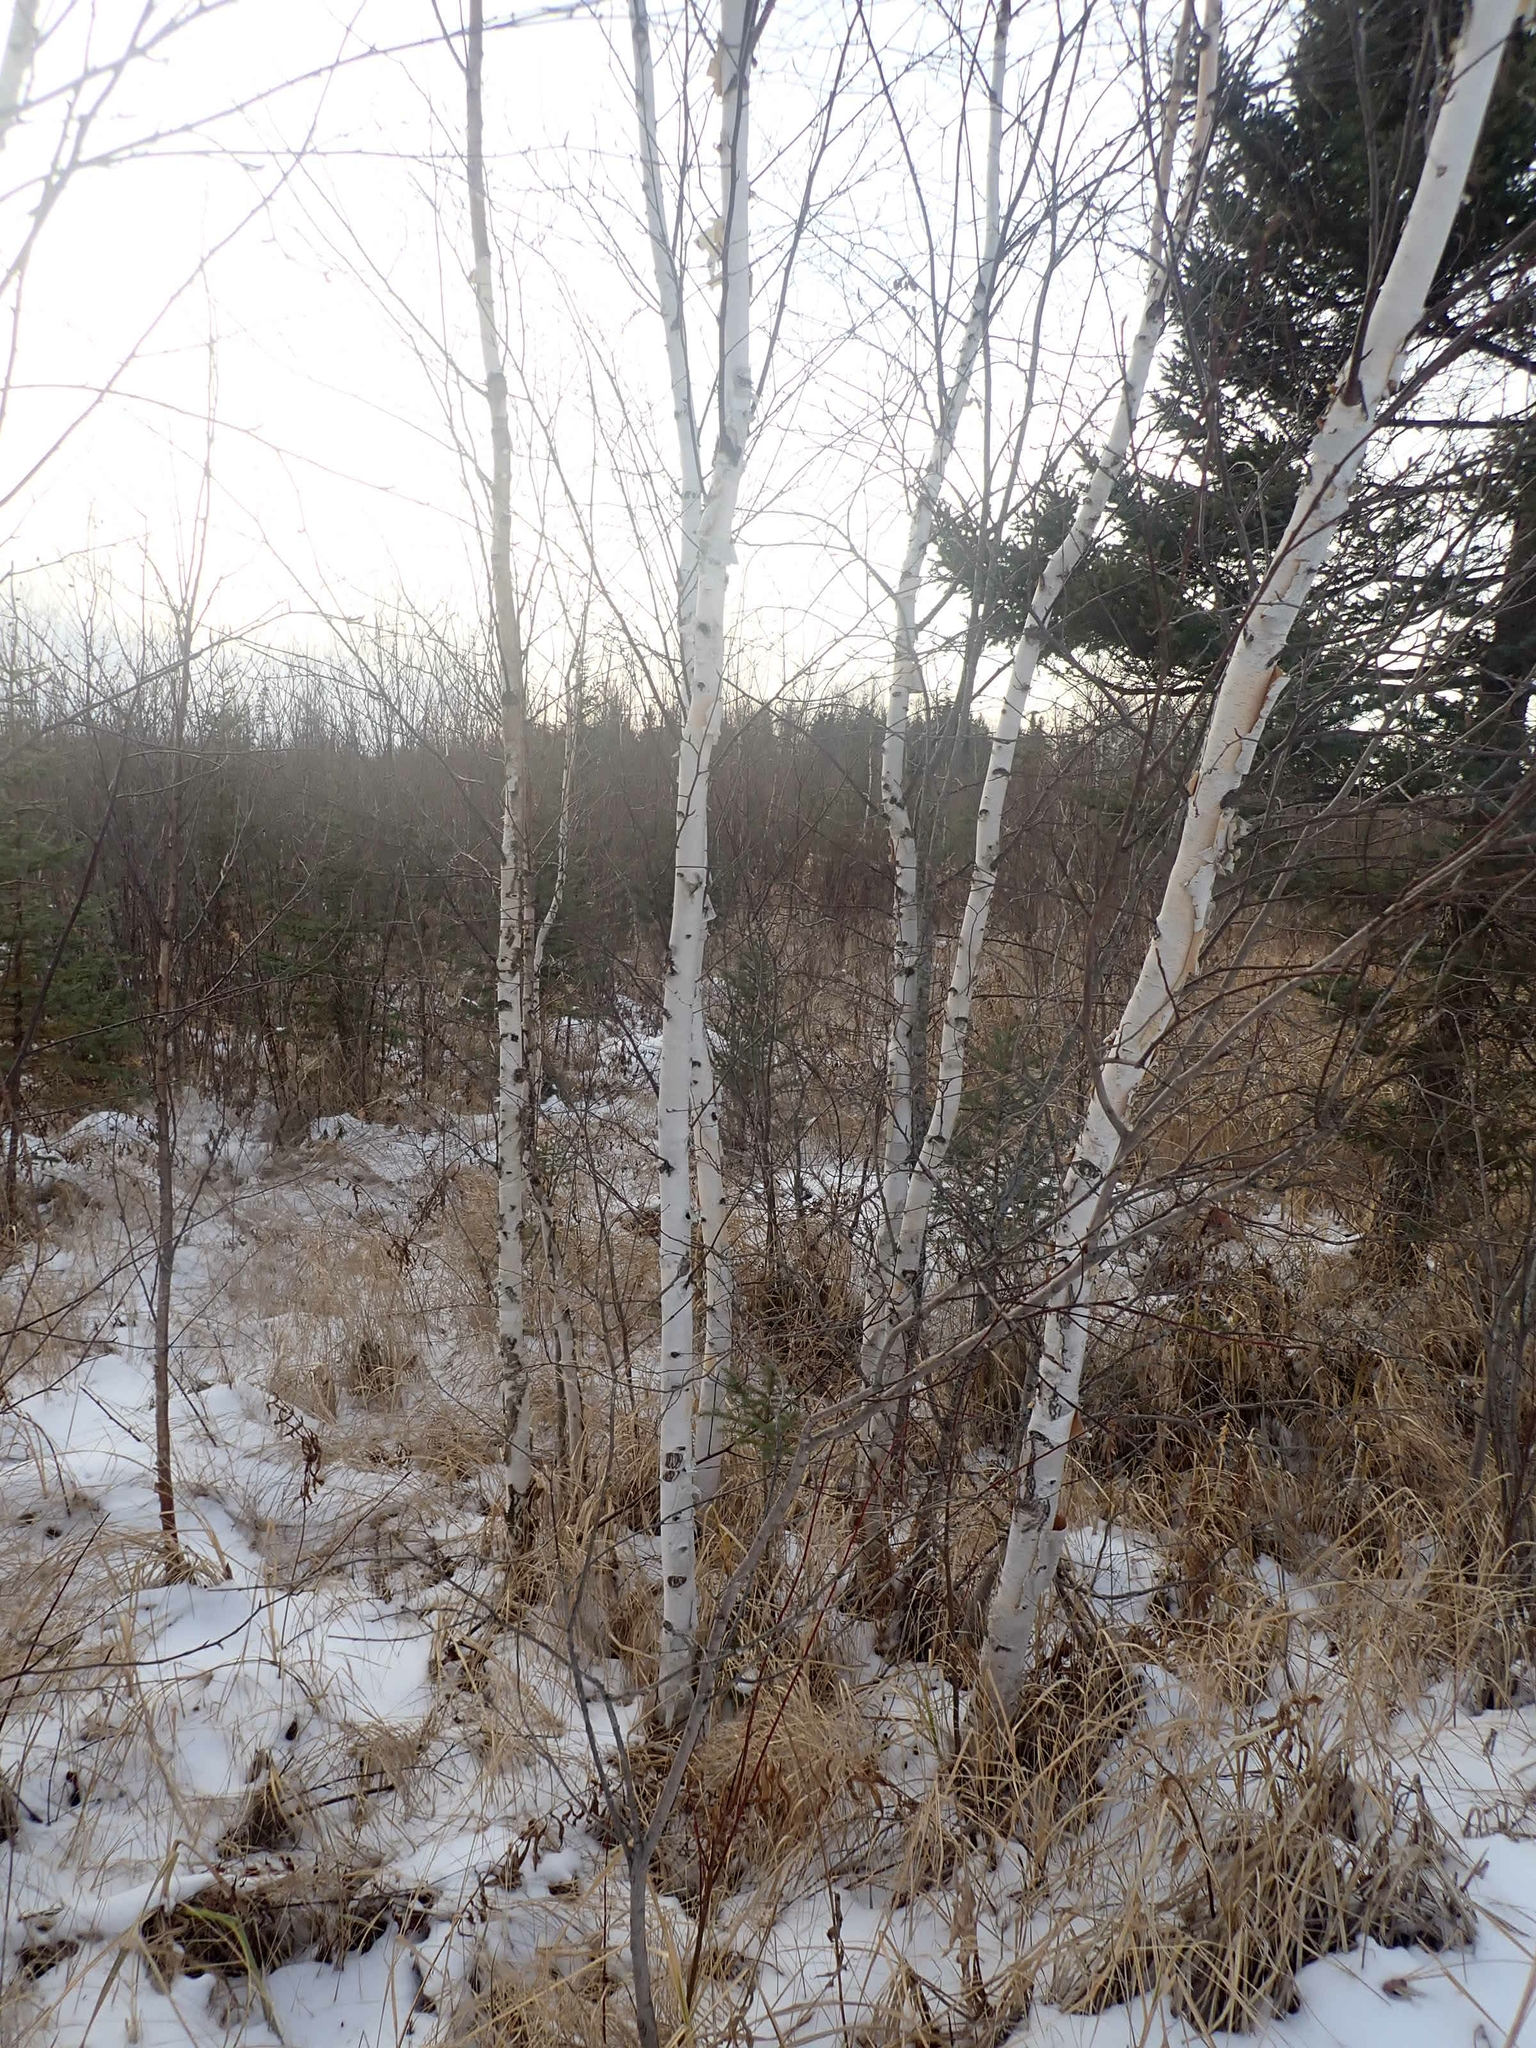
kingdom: Plantae
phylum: Tracheophyta
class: Magnoliopsida
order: Fagales
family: Betulaceae
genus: Betula
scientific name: Betula papyrifera
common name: Paper birch
